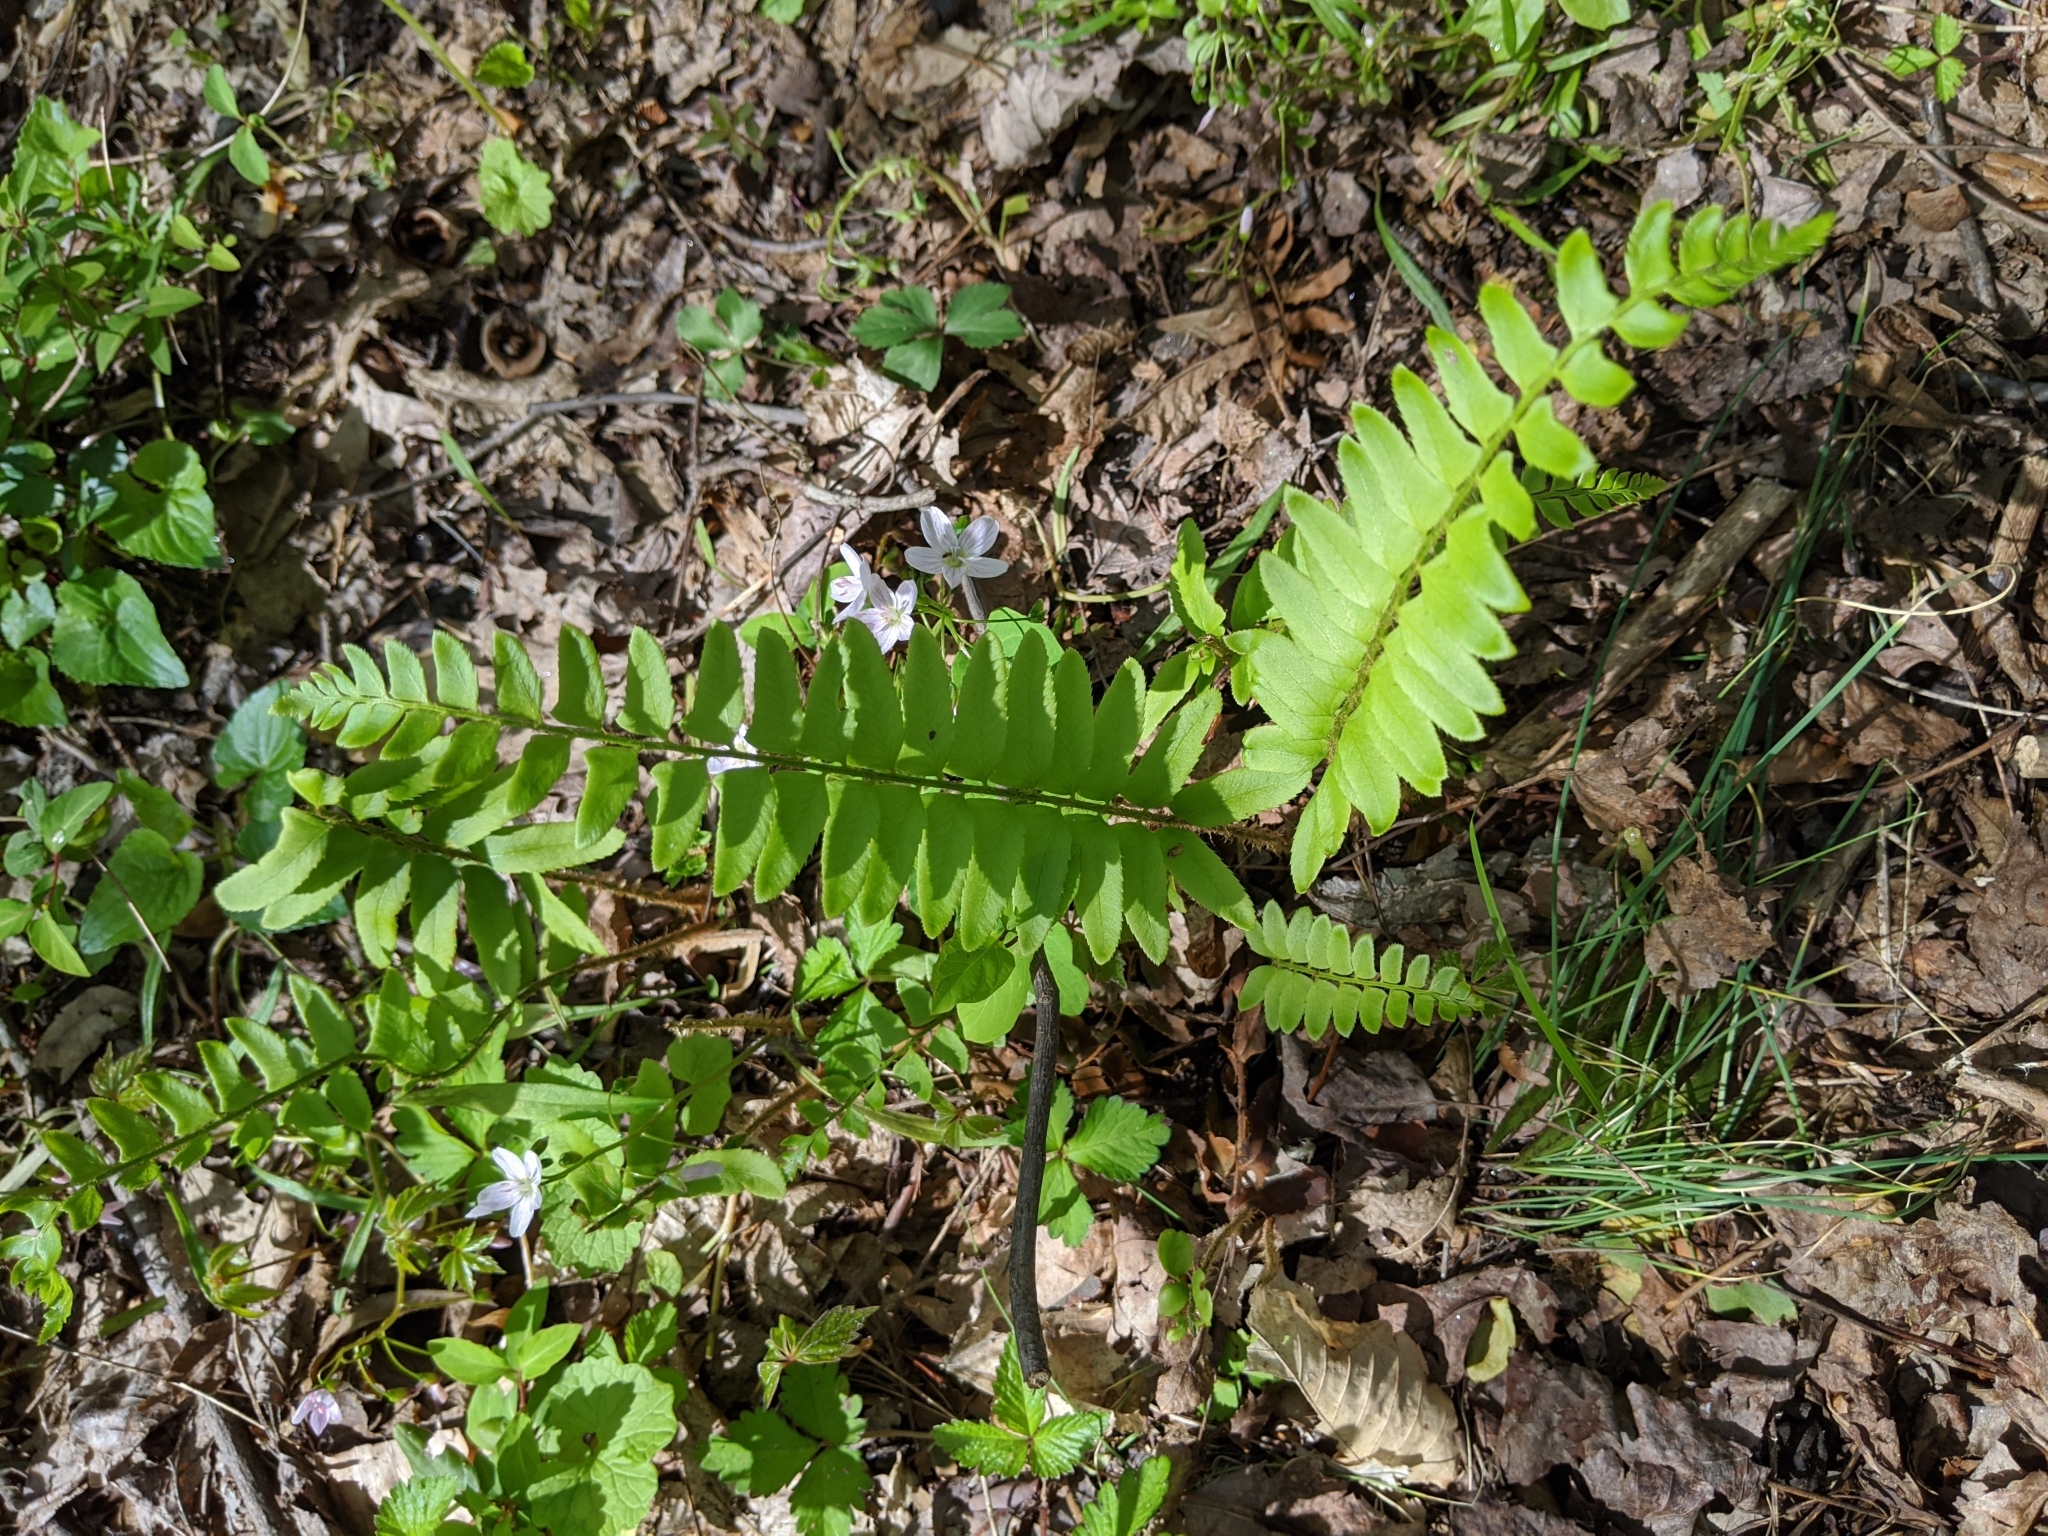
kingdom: Plantae
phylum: Tracheophyta
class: Polypodiopsida
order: Polypodiales
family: Dryopteridaceae
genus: Polystichum
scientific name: Polystichum acrostichoides
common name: Christmas fern
